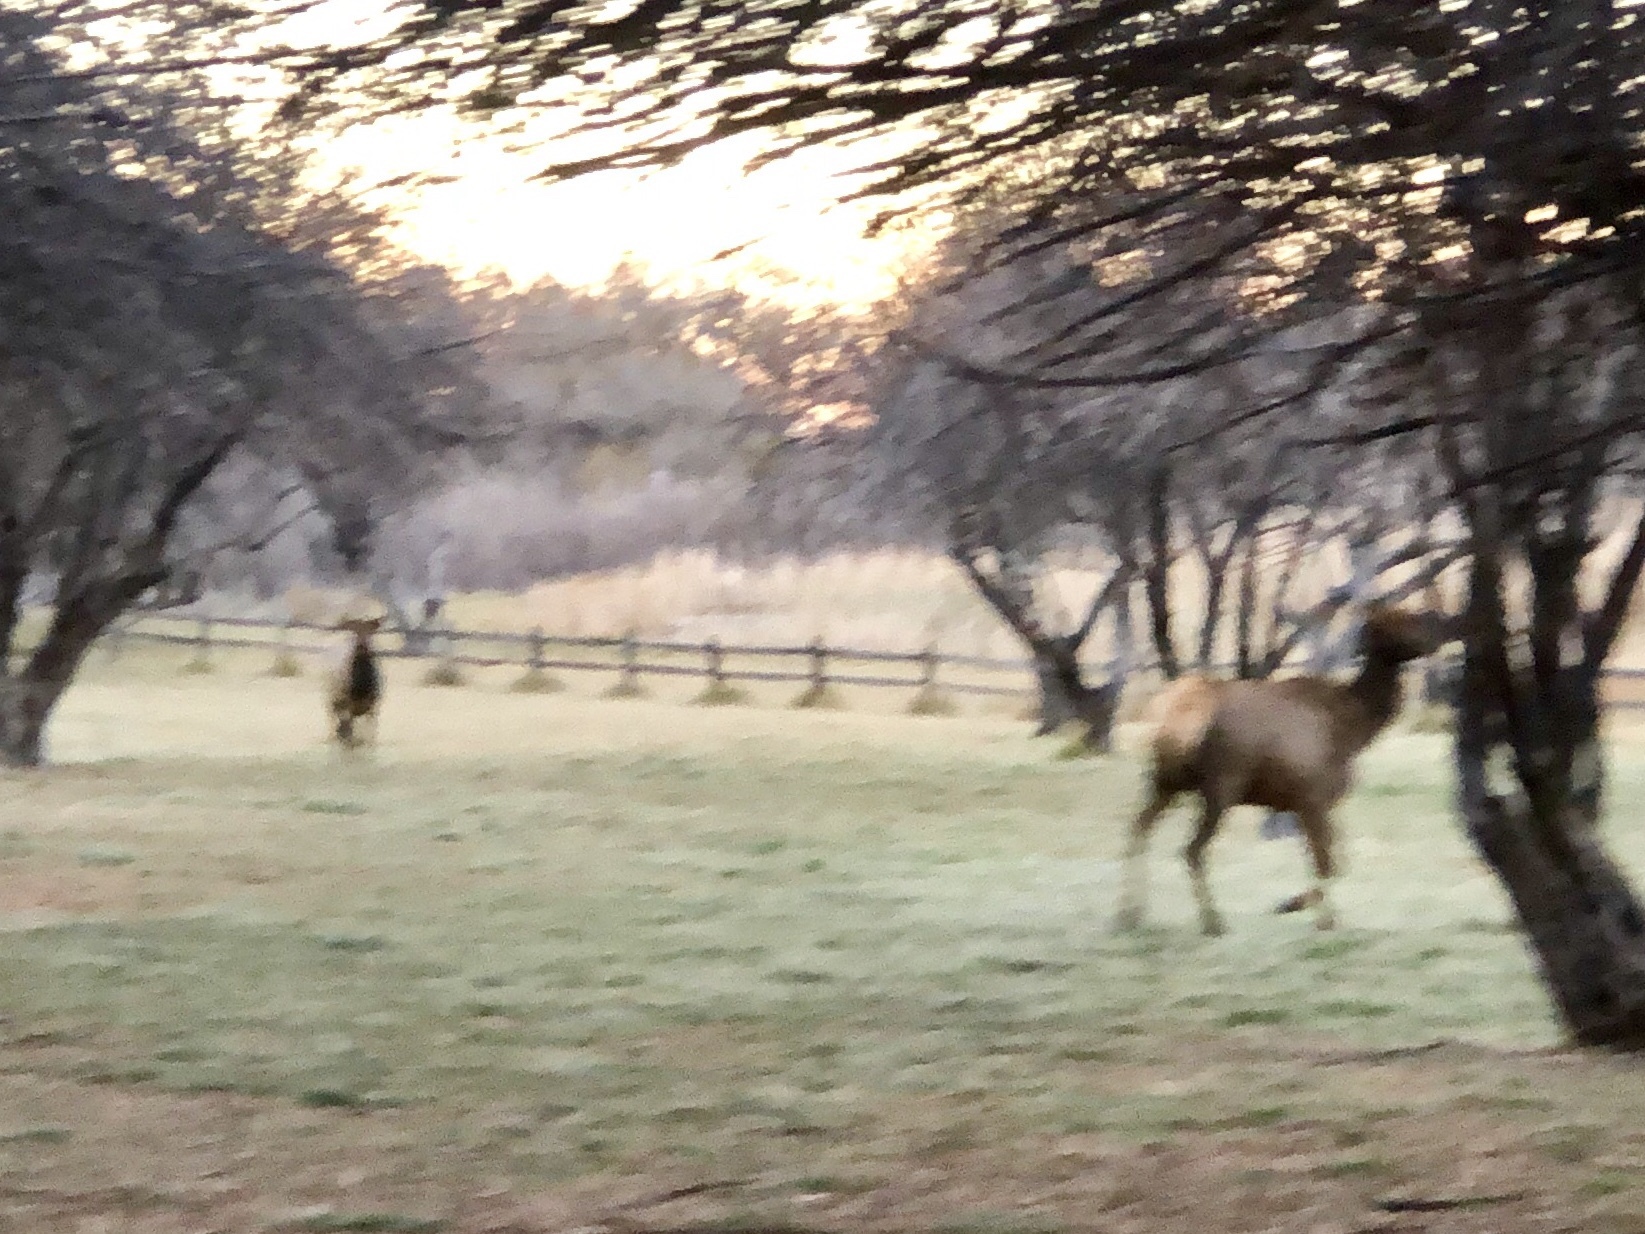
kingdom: Animalia
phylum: Chordata
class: Mammalia
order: Artiodactyla
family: Cervidae
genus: Cervus
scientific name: Cervus elaphus
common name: Red deer
